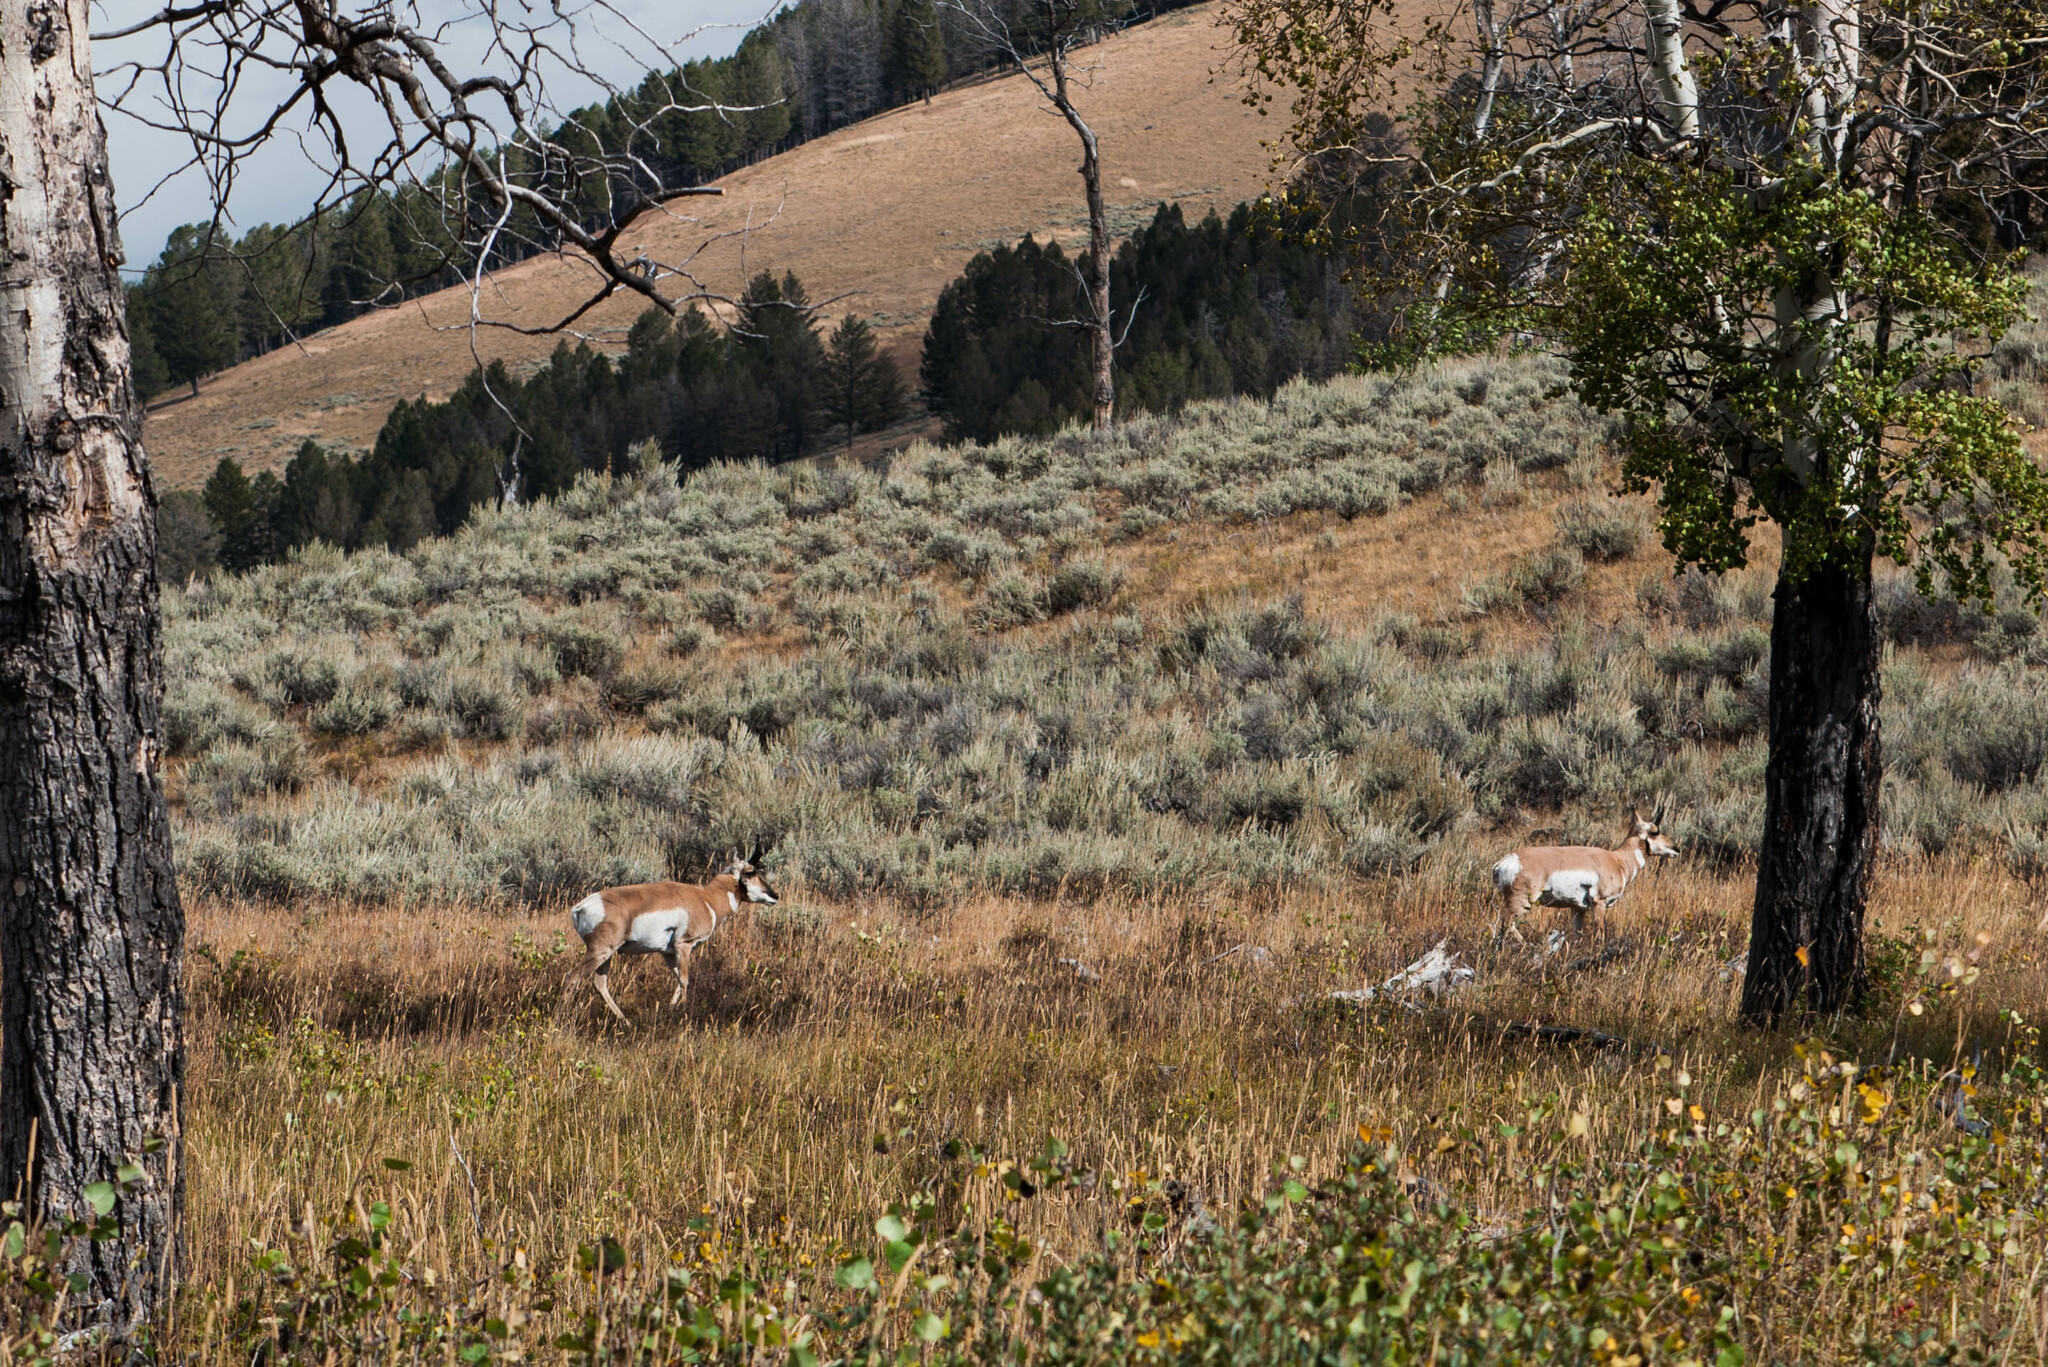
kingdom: Animalia
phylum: Chordata
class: Mammalia
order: Artiodactyla
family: Antilocapridae
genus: Antilocapra
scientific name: Antilocapra americana
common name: Pronghorn
